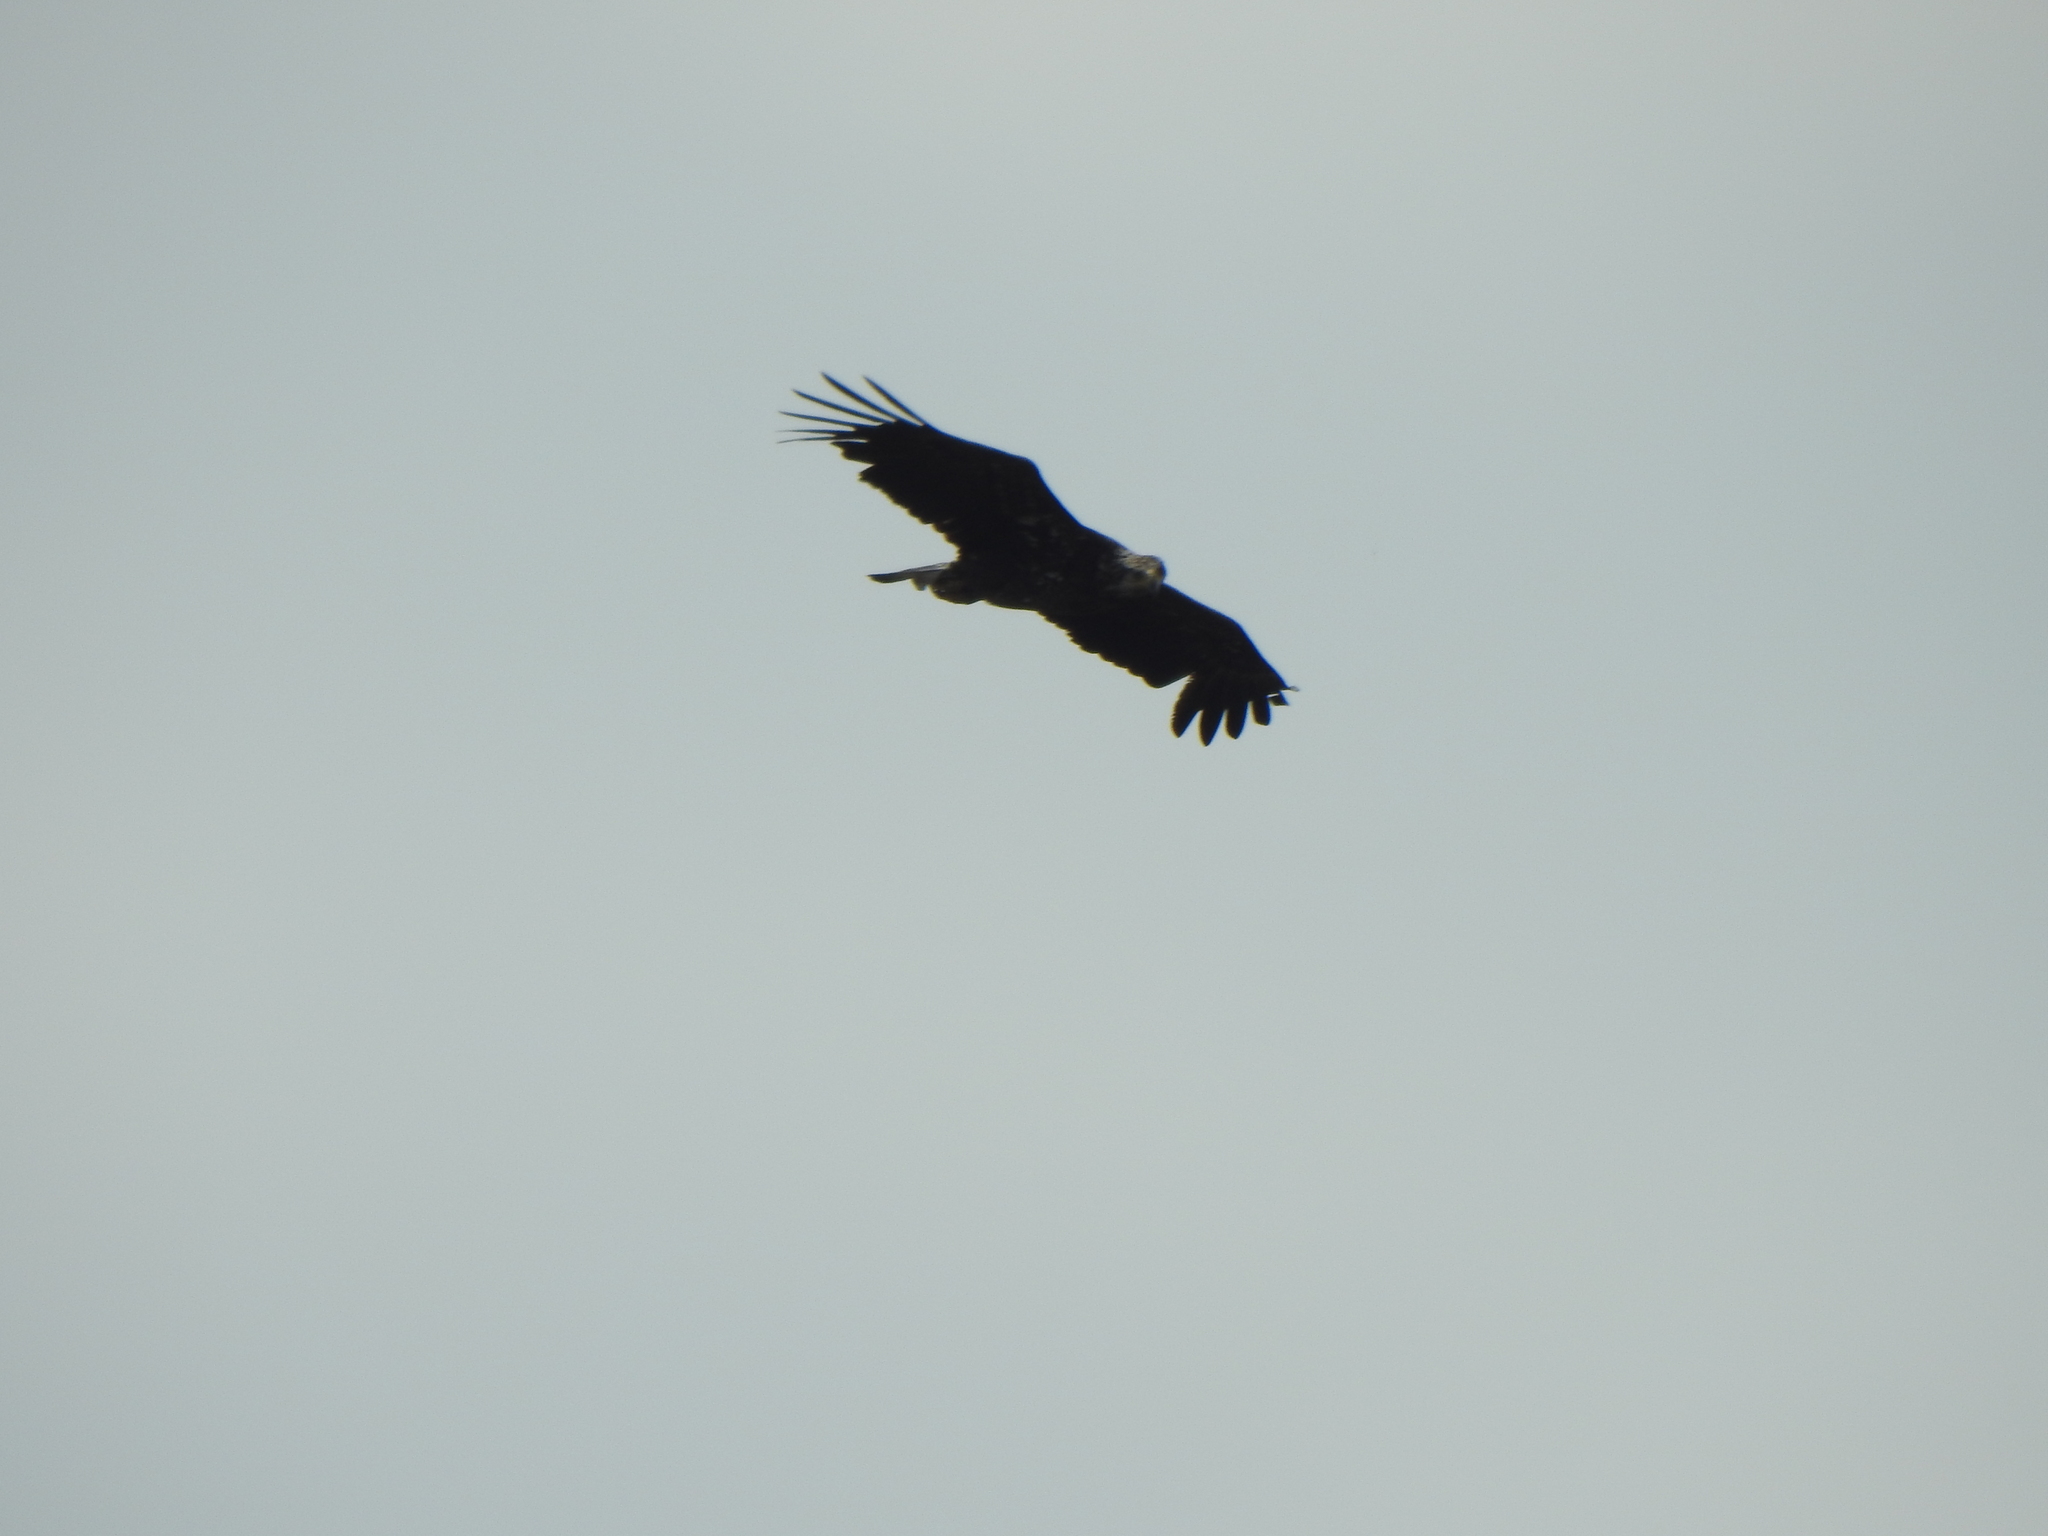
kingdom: Animalia
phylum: Chordata
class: Aves
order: Accipitriformes
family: Accipitridae
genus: Haliaeetus
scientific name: Haliaeetus leucocephalus
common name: Bald eagle
